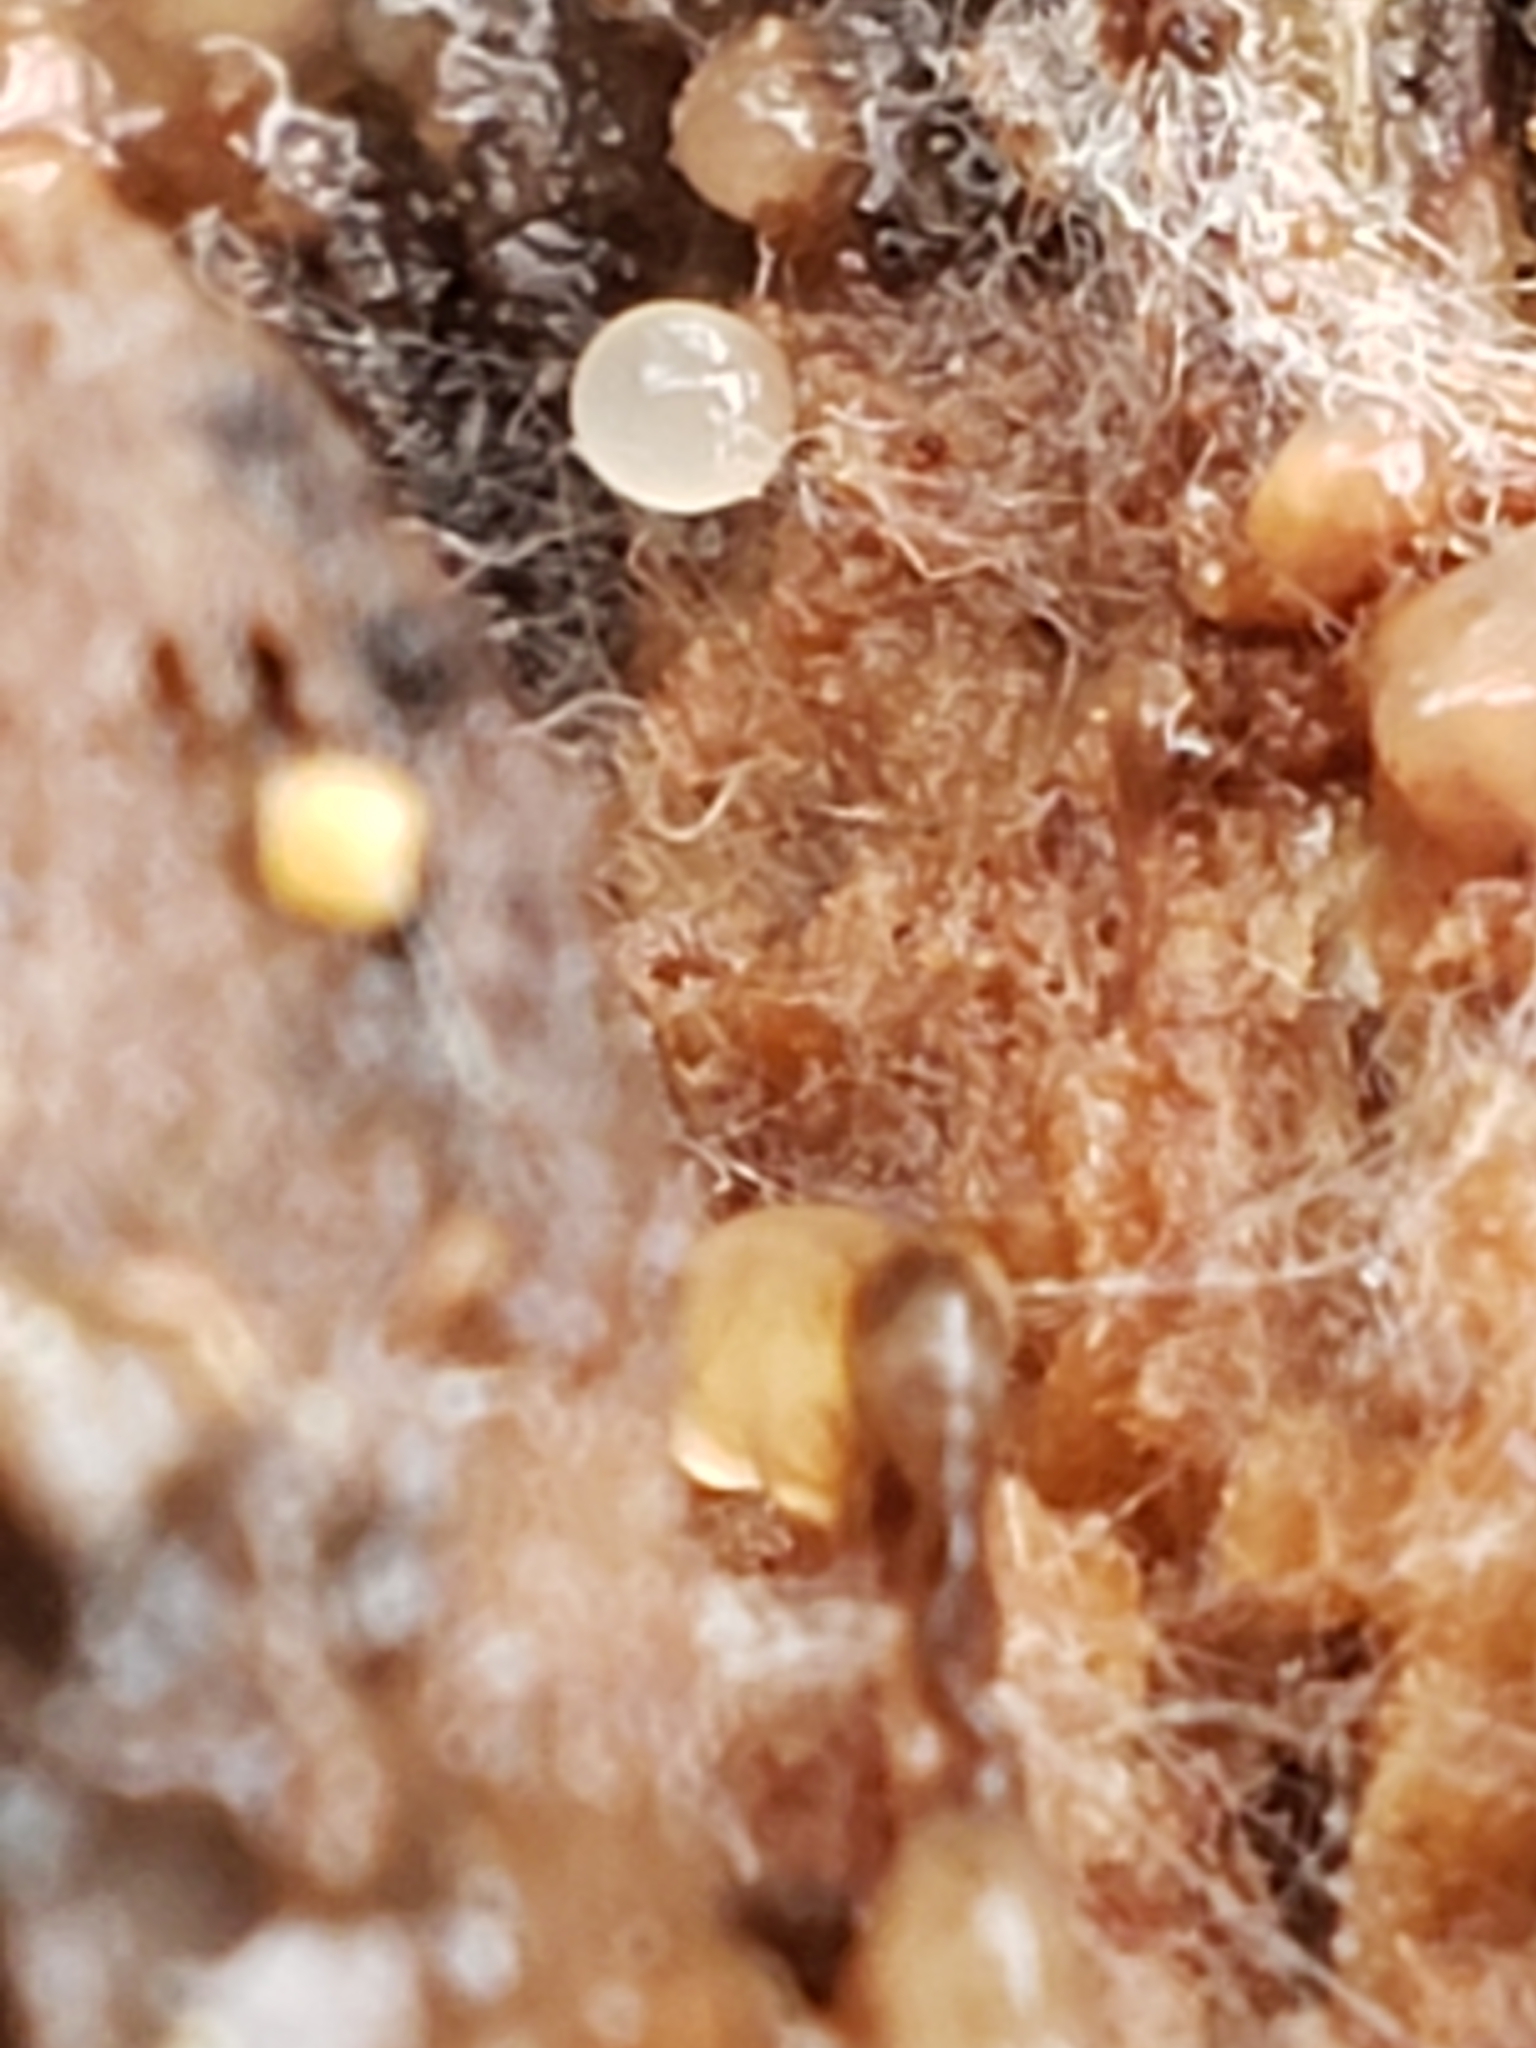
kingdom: Fungi
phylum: Basidiomycota
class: Atractiellomycetes
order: Atractiellales
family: Phleogenaceae
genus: Helicogloea
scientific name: Helicogloea compressa
